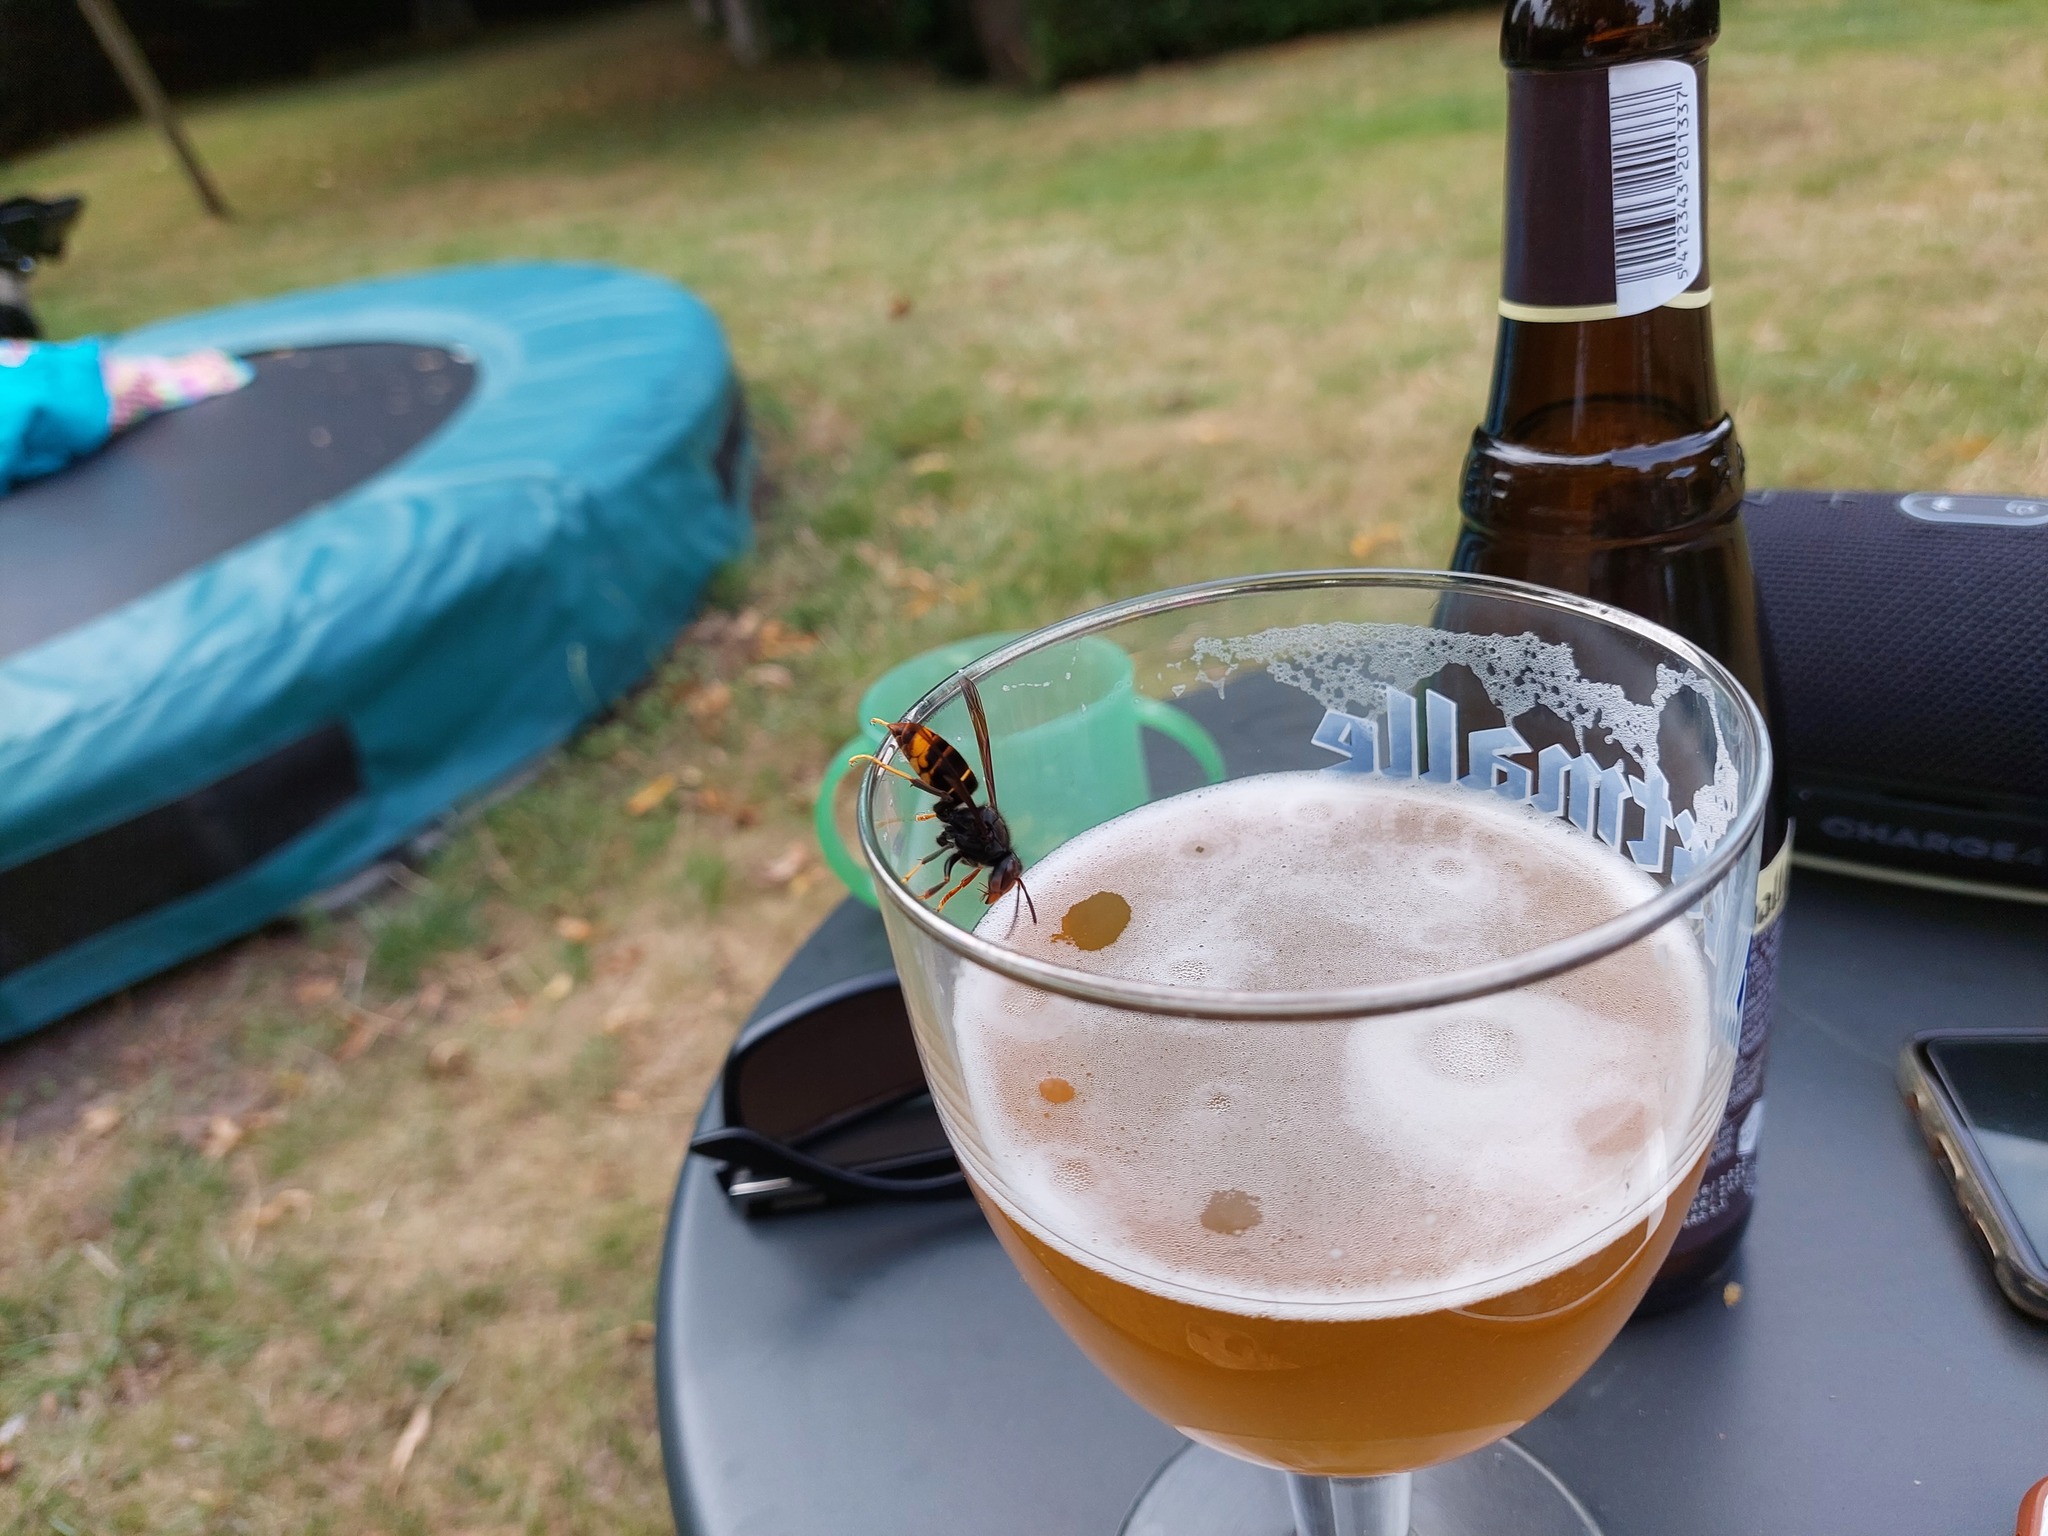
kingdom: Animalia
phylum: Arthropoda
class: Insecta
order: Hymenoptera
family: Vespidae
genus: Vespa
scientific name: Vespa velutina
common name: Asian hornet
